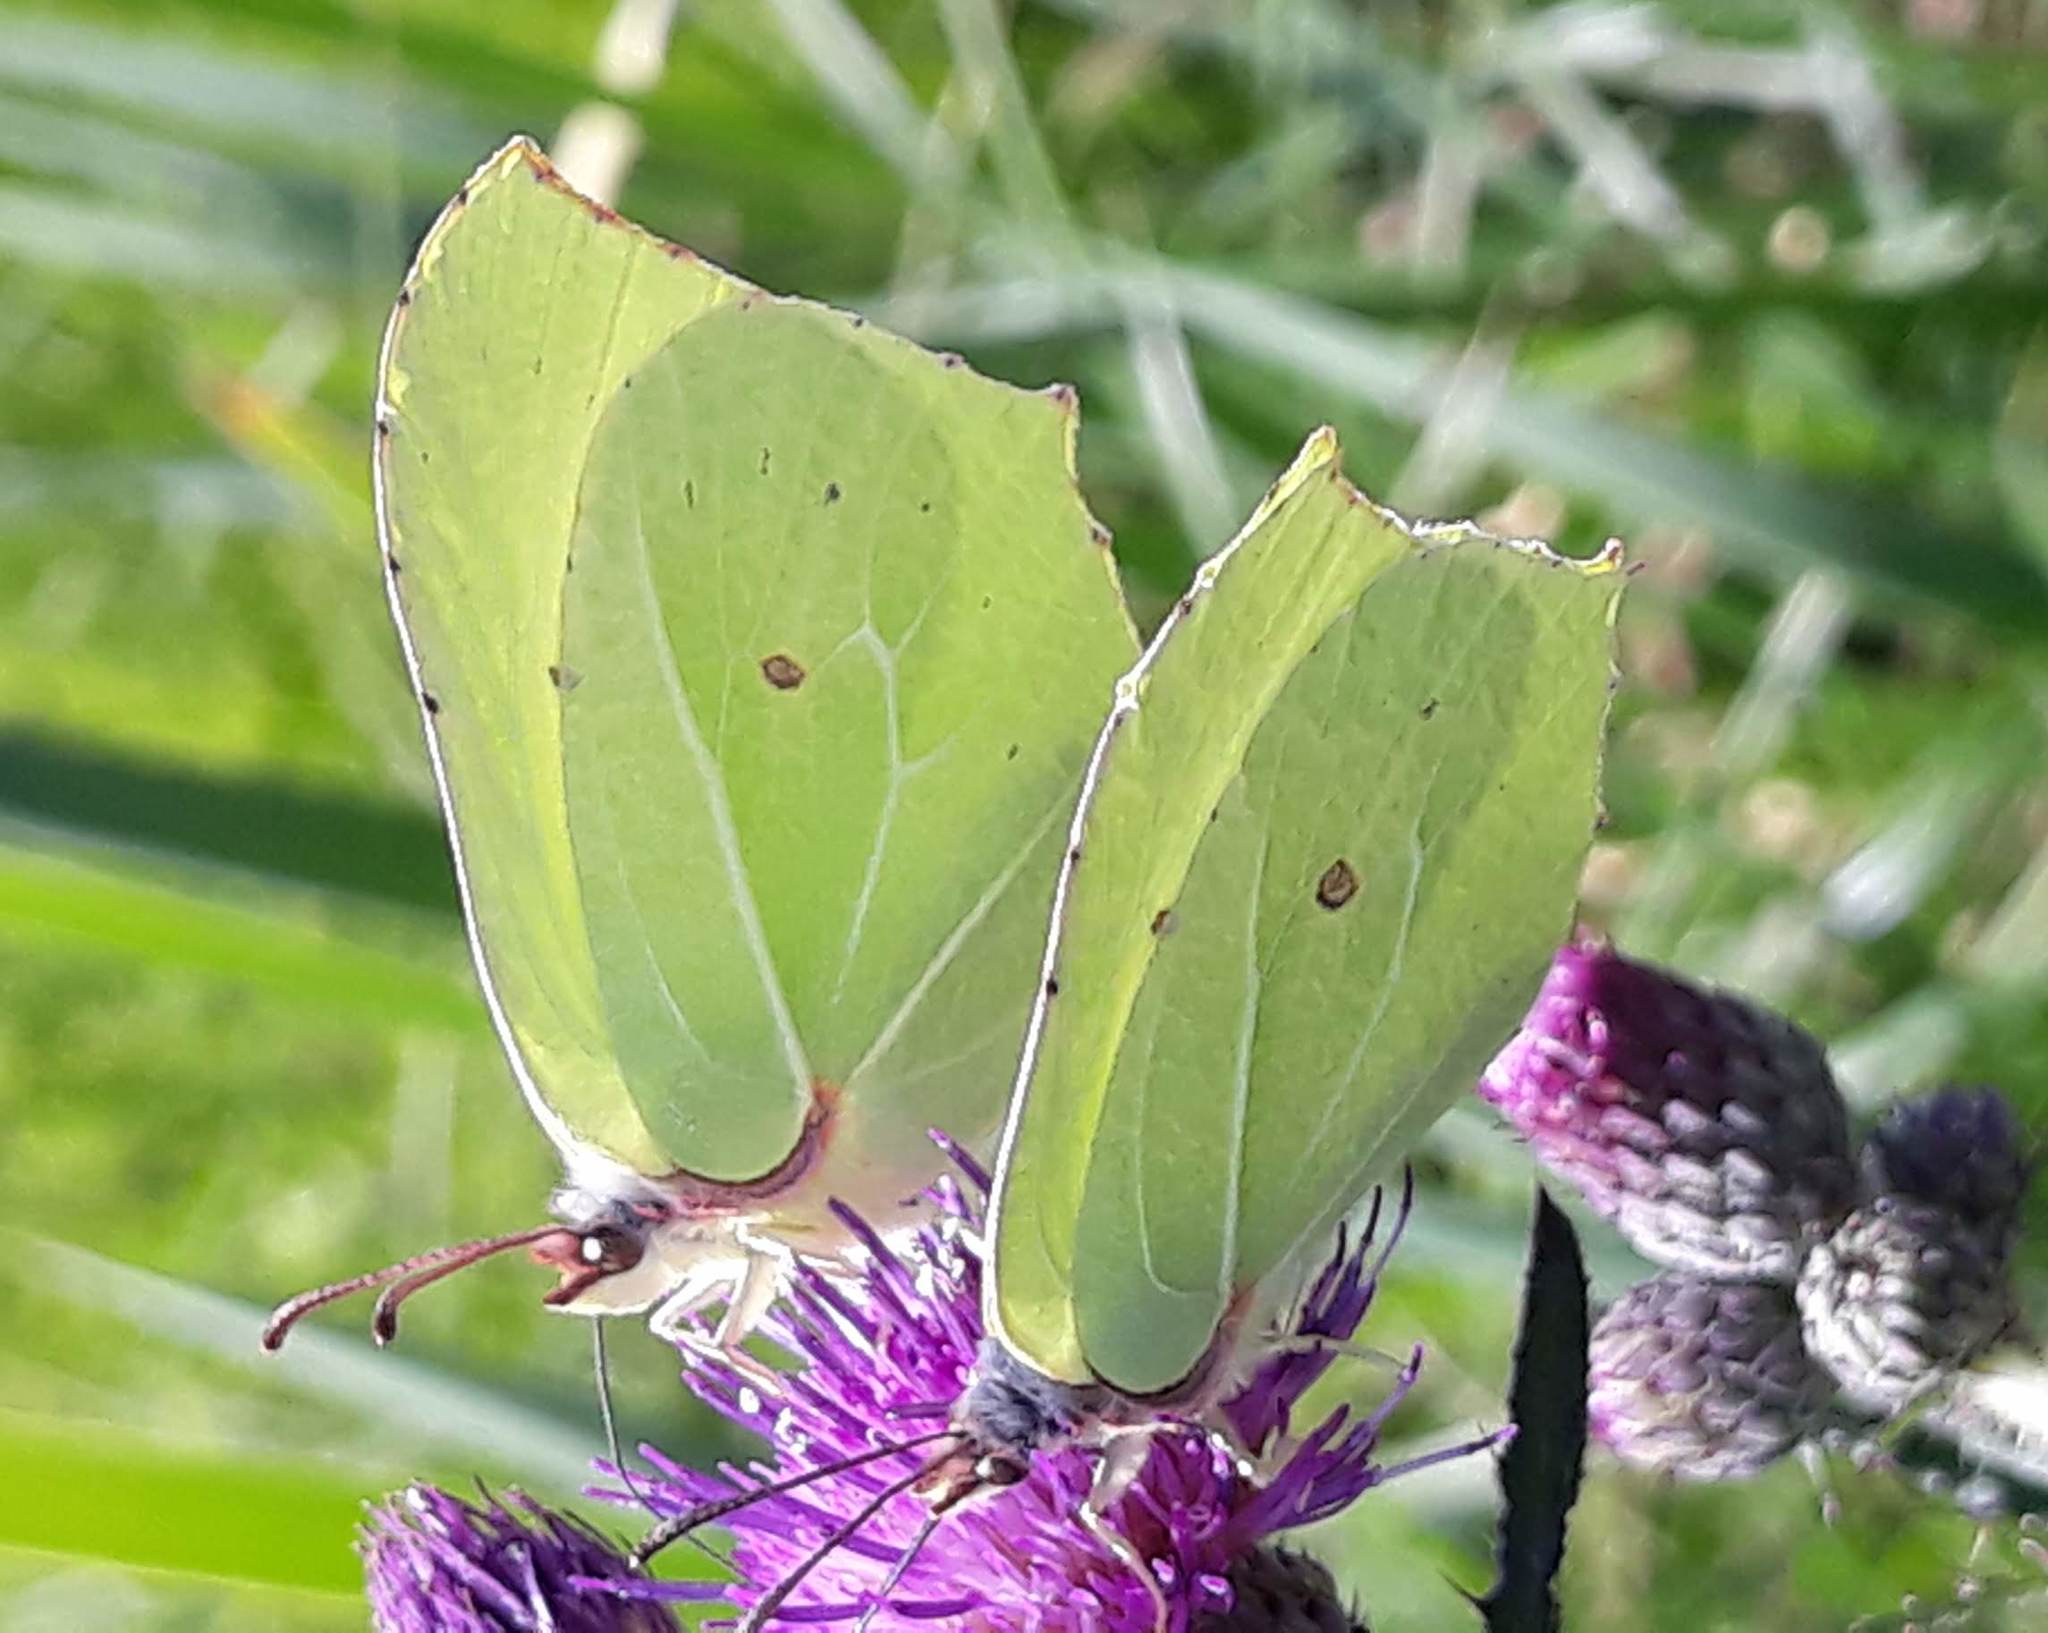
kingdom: Animalia
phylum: Arthropoda
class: Insecta
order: Lepidoptera
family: Pieridae
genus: Gonepteryx
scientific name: Gonepteryx rhamni
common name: Brimstone
